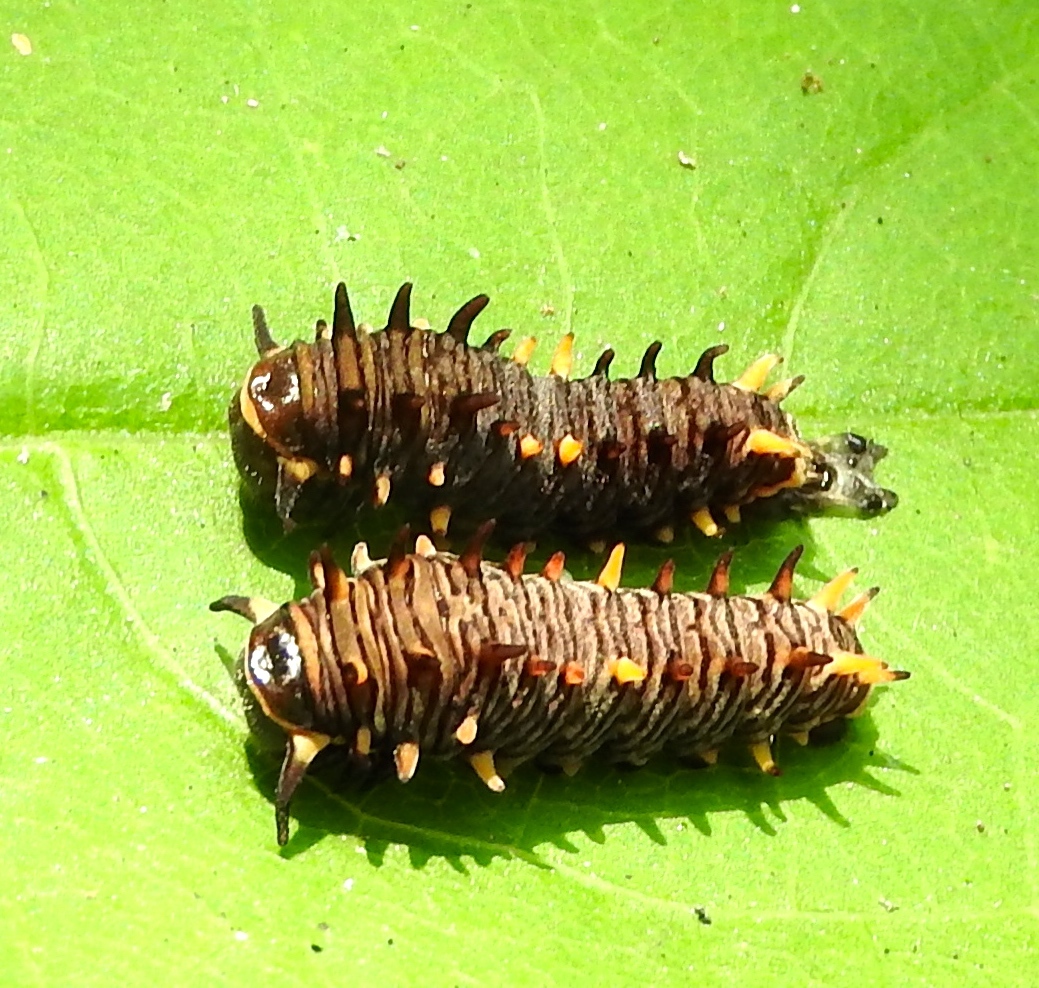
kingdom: Animalia
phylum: Arthropoda
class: Insecta
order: Lepidoptera
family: Papilionidae
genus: Battus
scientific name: Battus polydamas
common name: Polydamas swallowtail
